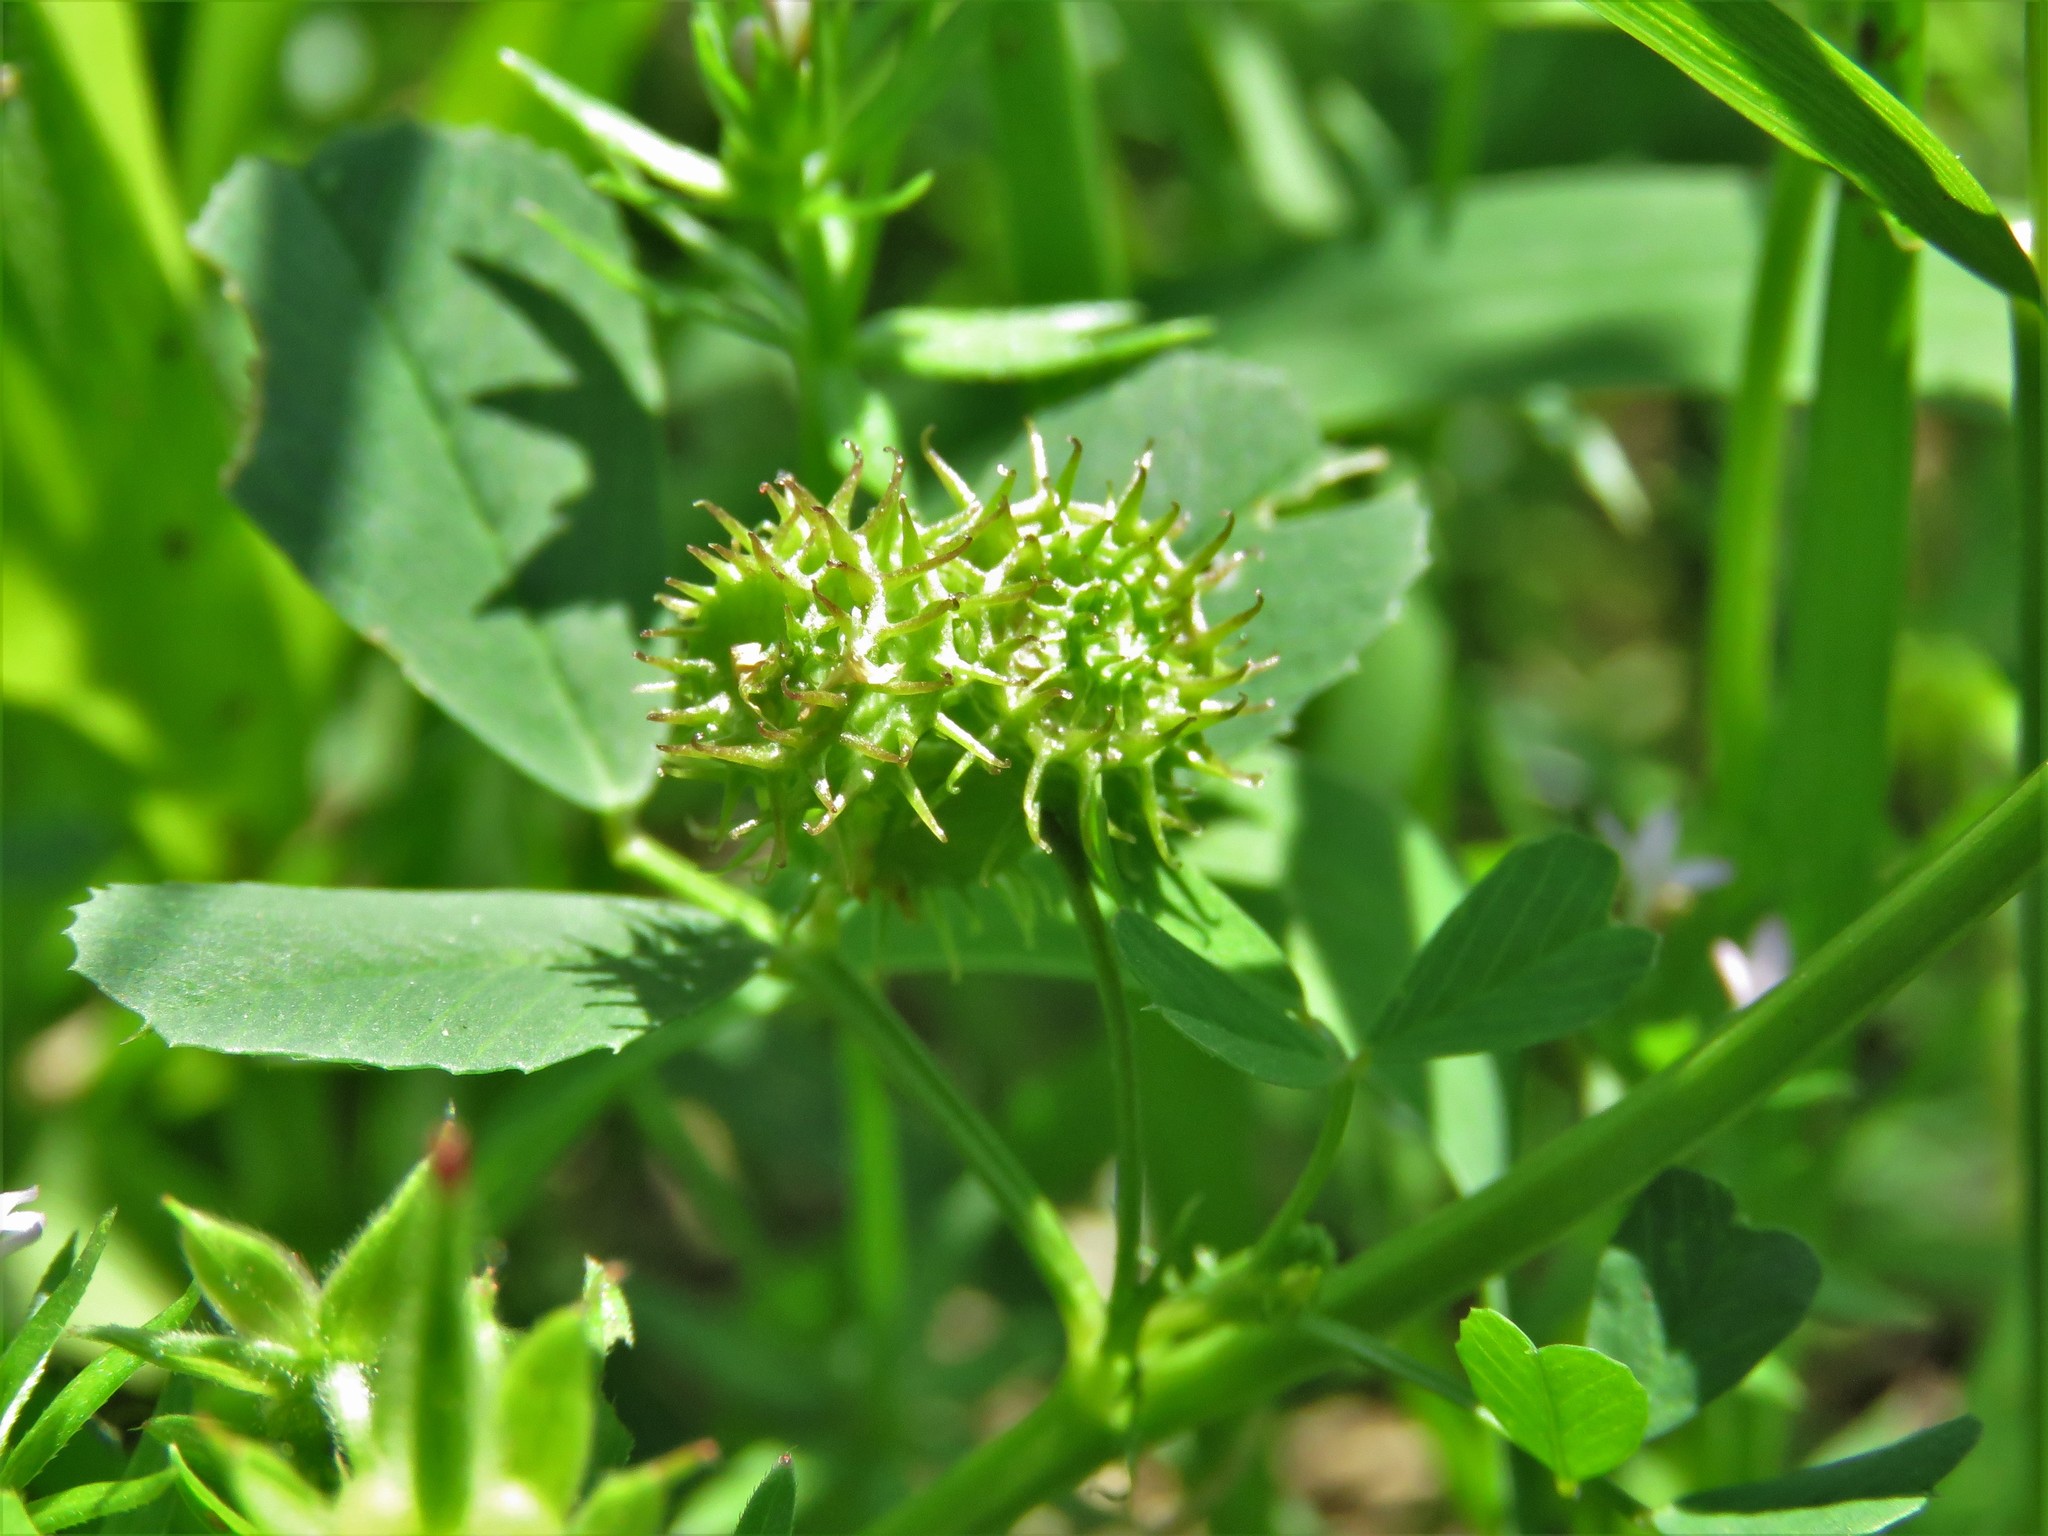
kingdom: Plantae
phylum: Tracheophyta
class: Magnoliopsida
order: Fabales
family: Fabaceae
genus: Medicago
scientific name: Medicago polymorpha
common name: Burclover
